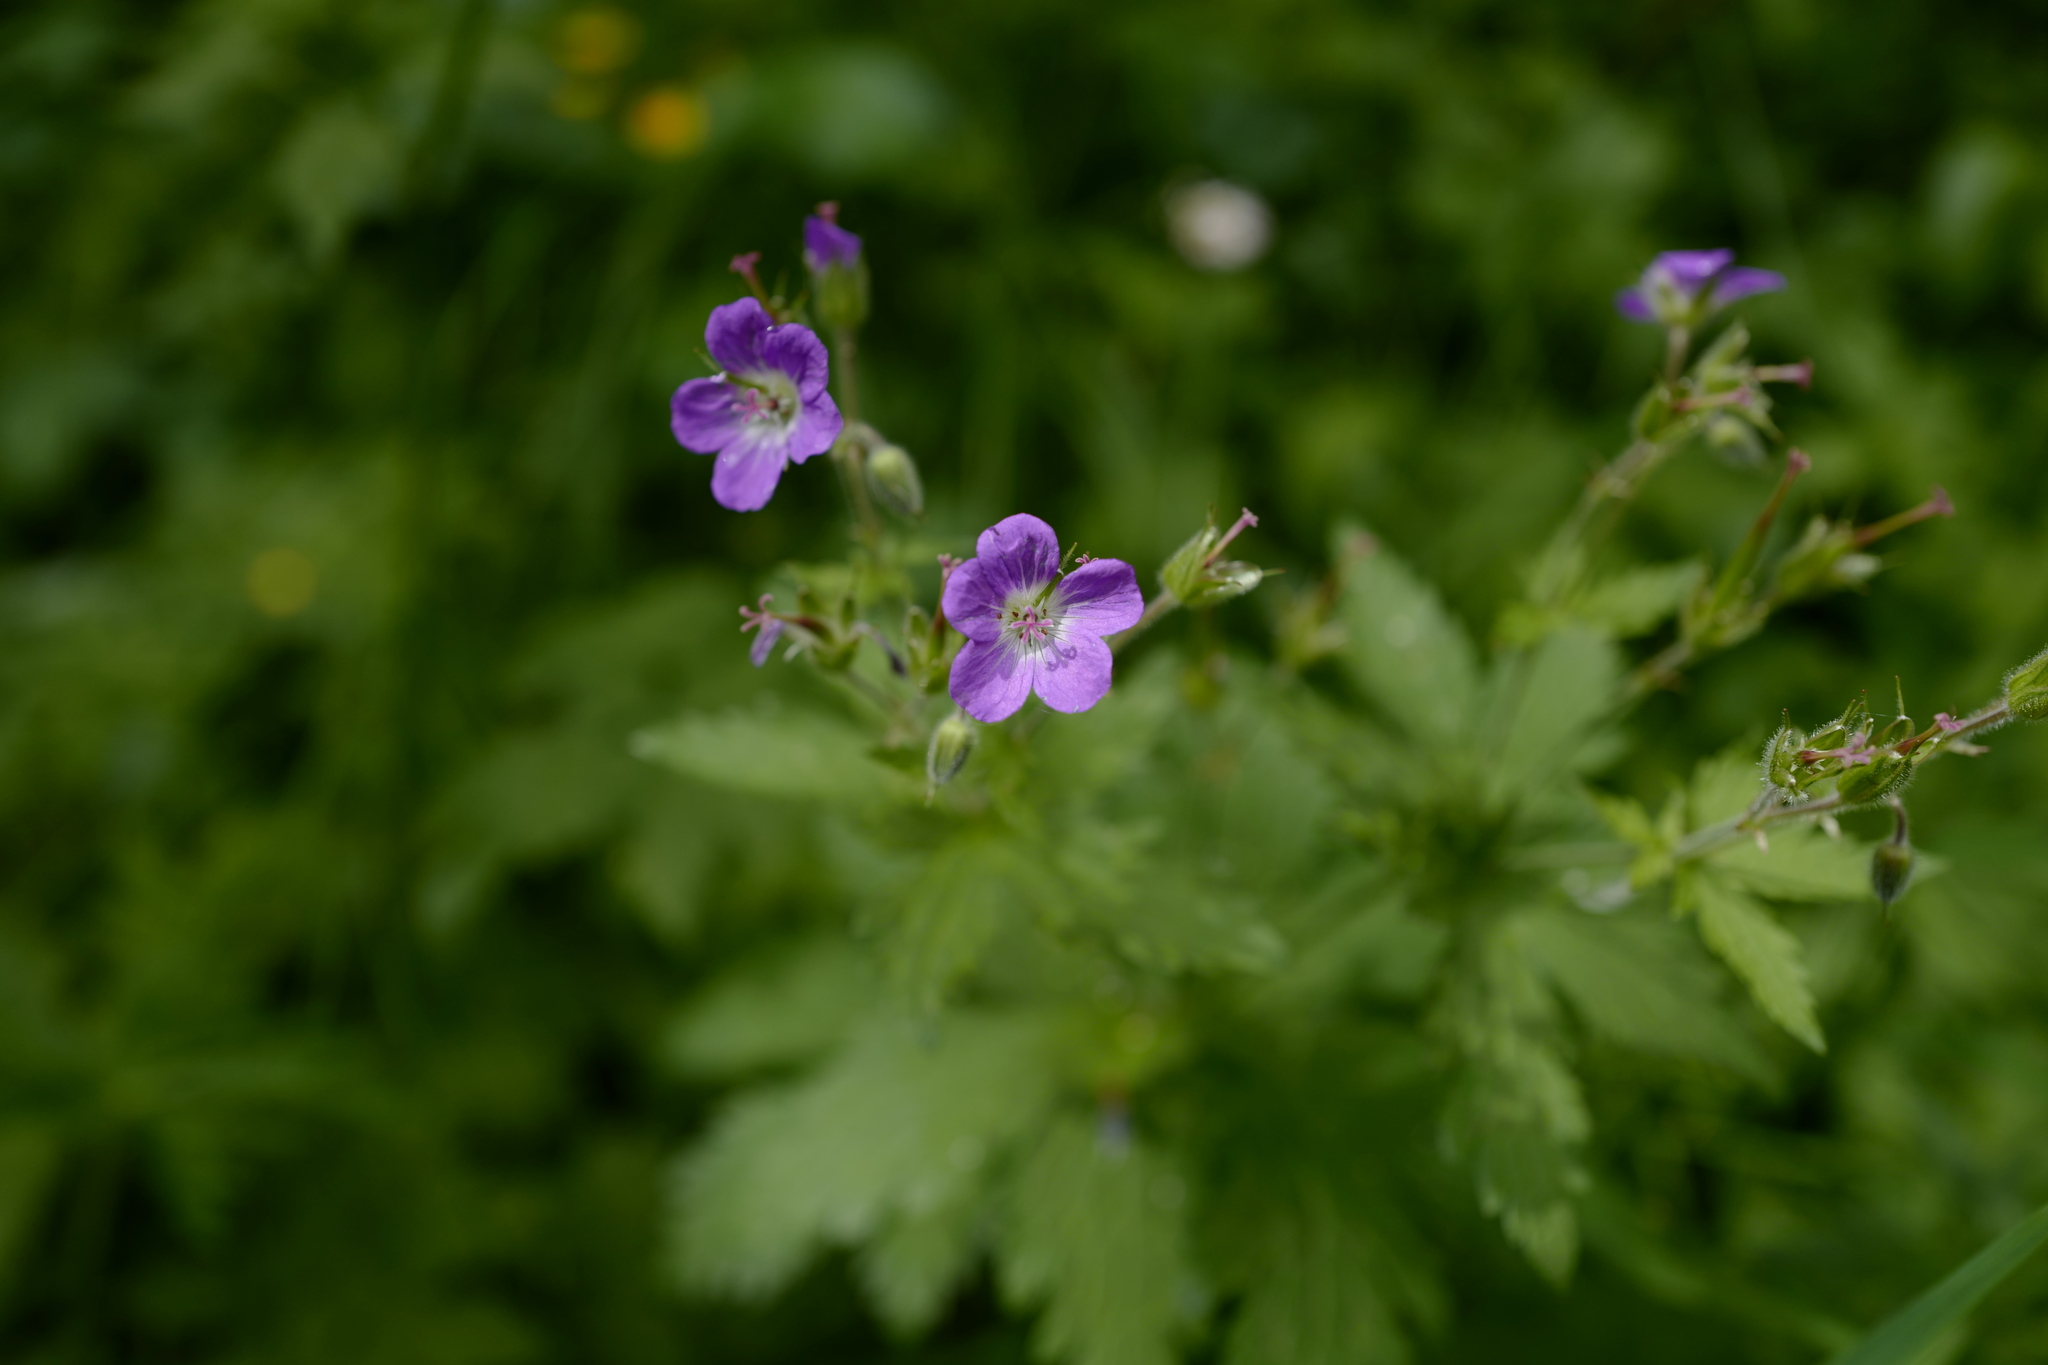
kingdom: Plantae
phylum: Tracheophyta
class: Magnoliopsida
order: Geraniales
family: Geraniaceae
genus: Geranium
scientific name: Geranium sylvaticum
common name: Wood crane's-bill
